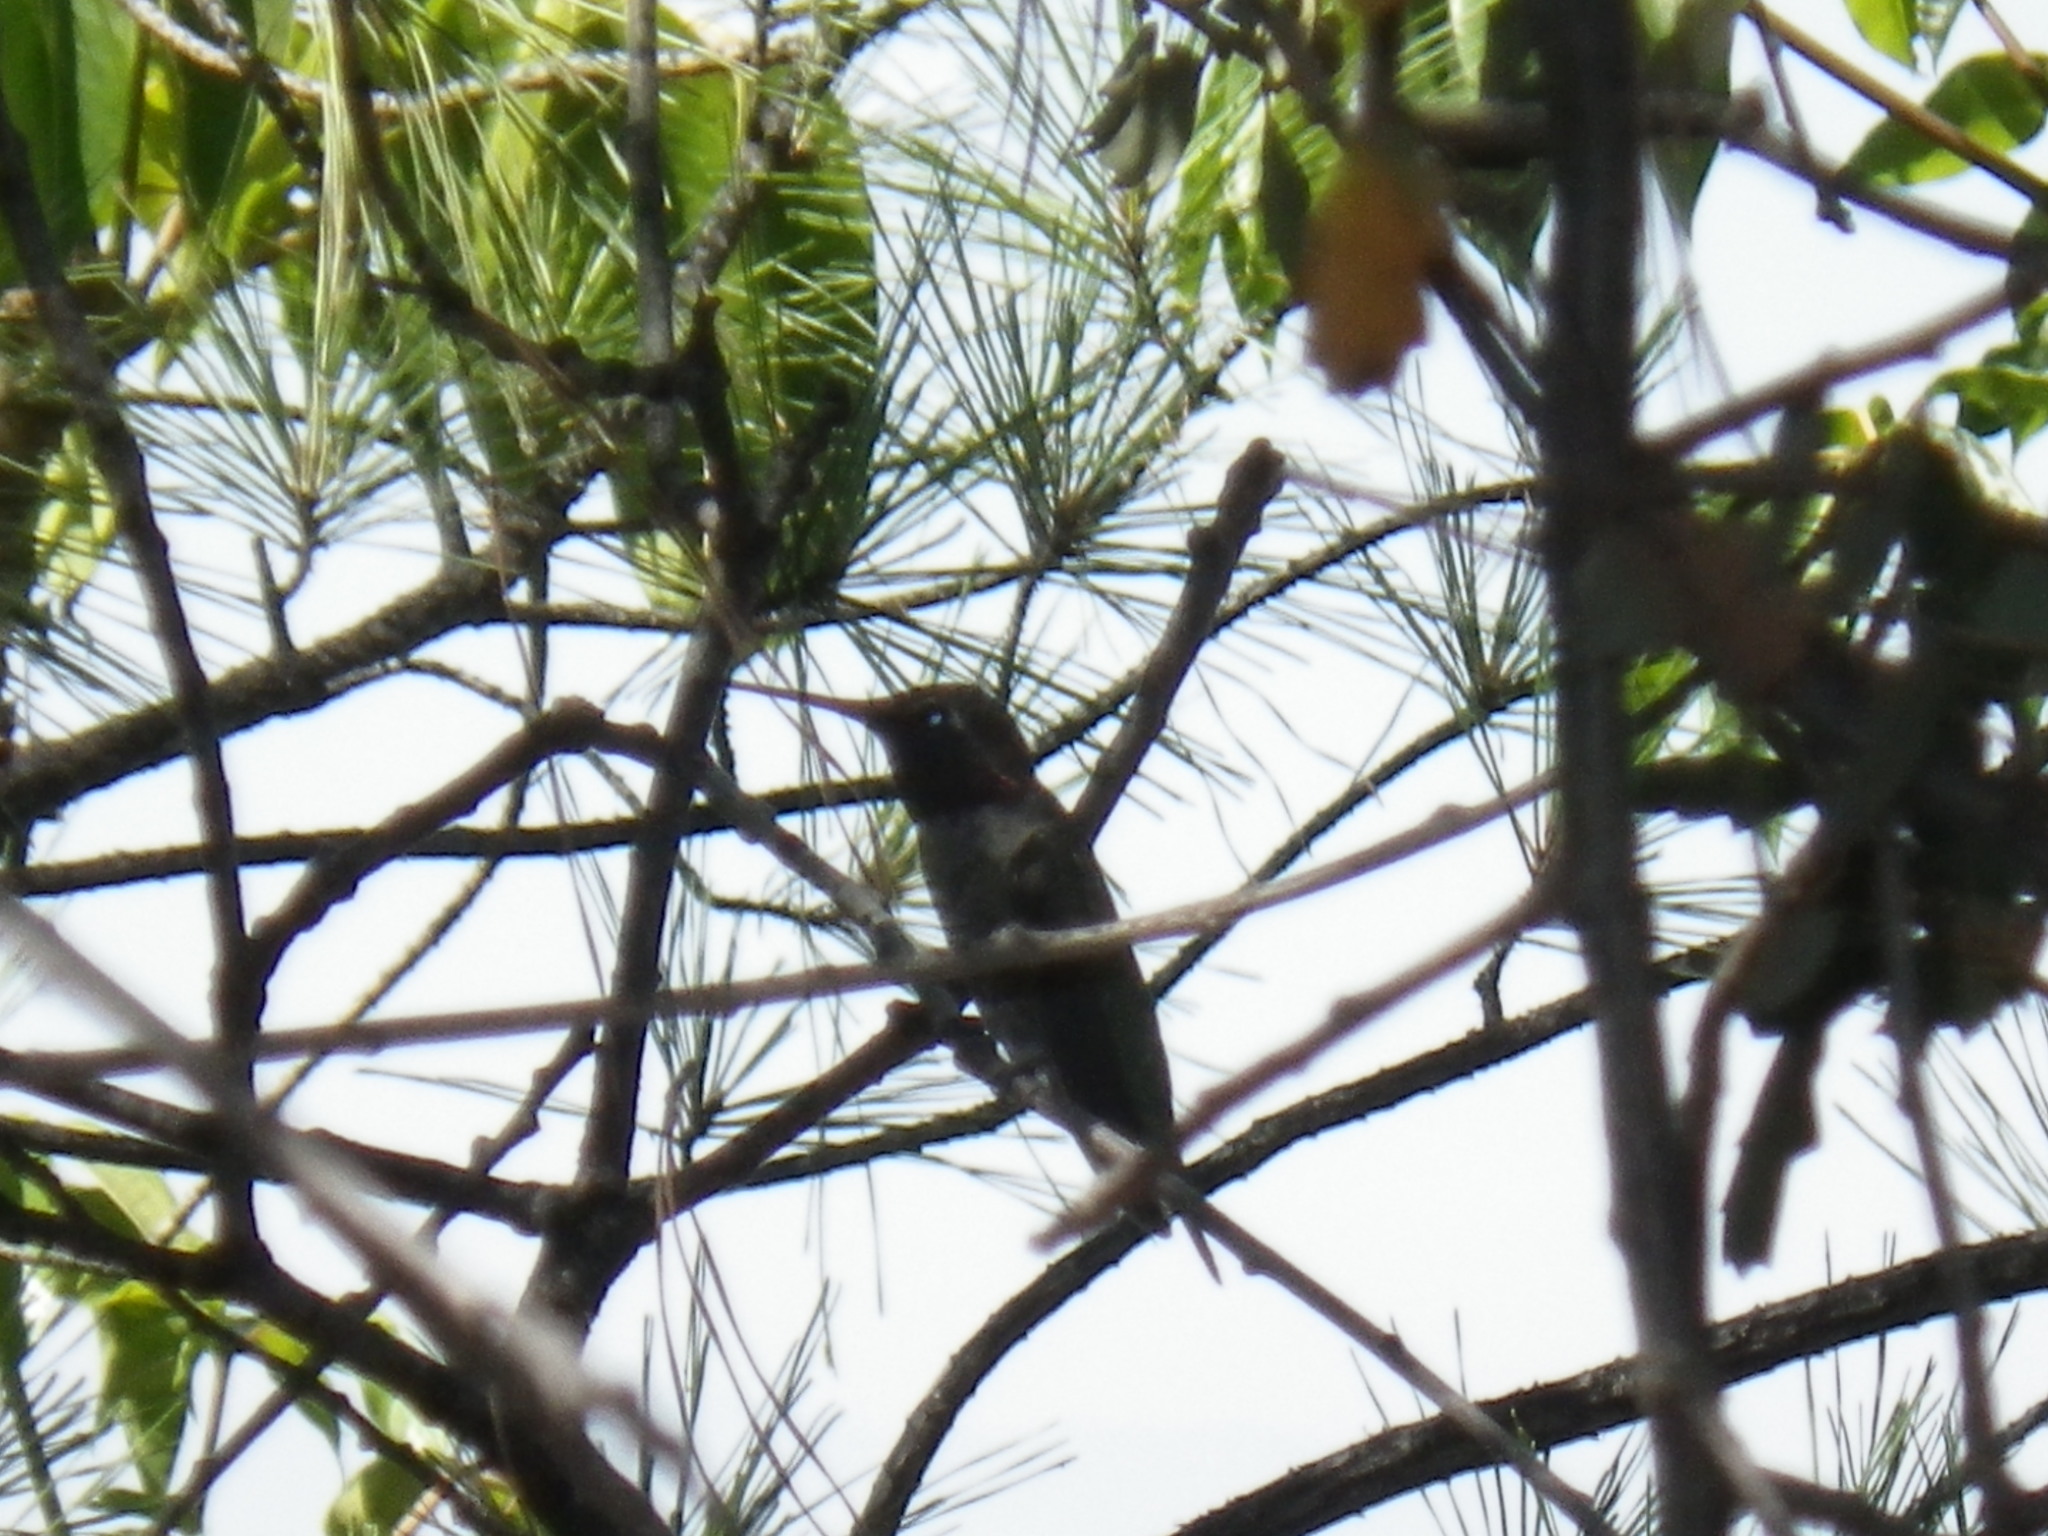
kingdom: Animalia
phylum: Chordata
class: Aves
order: Apodiformes
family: Trochilidae
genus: Calypte
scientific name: Calypte anna
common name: Anna's hummingbird
